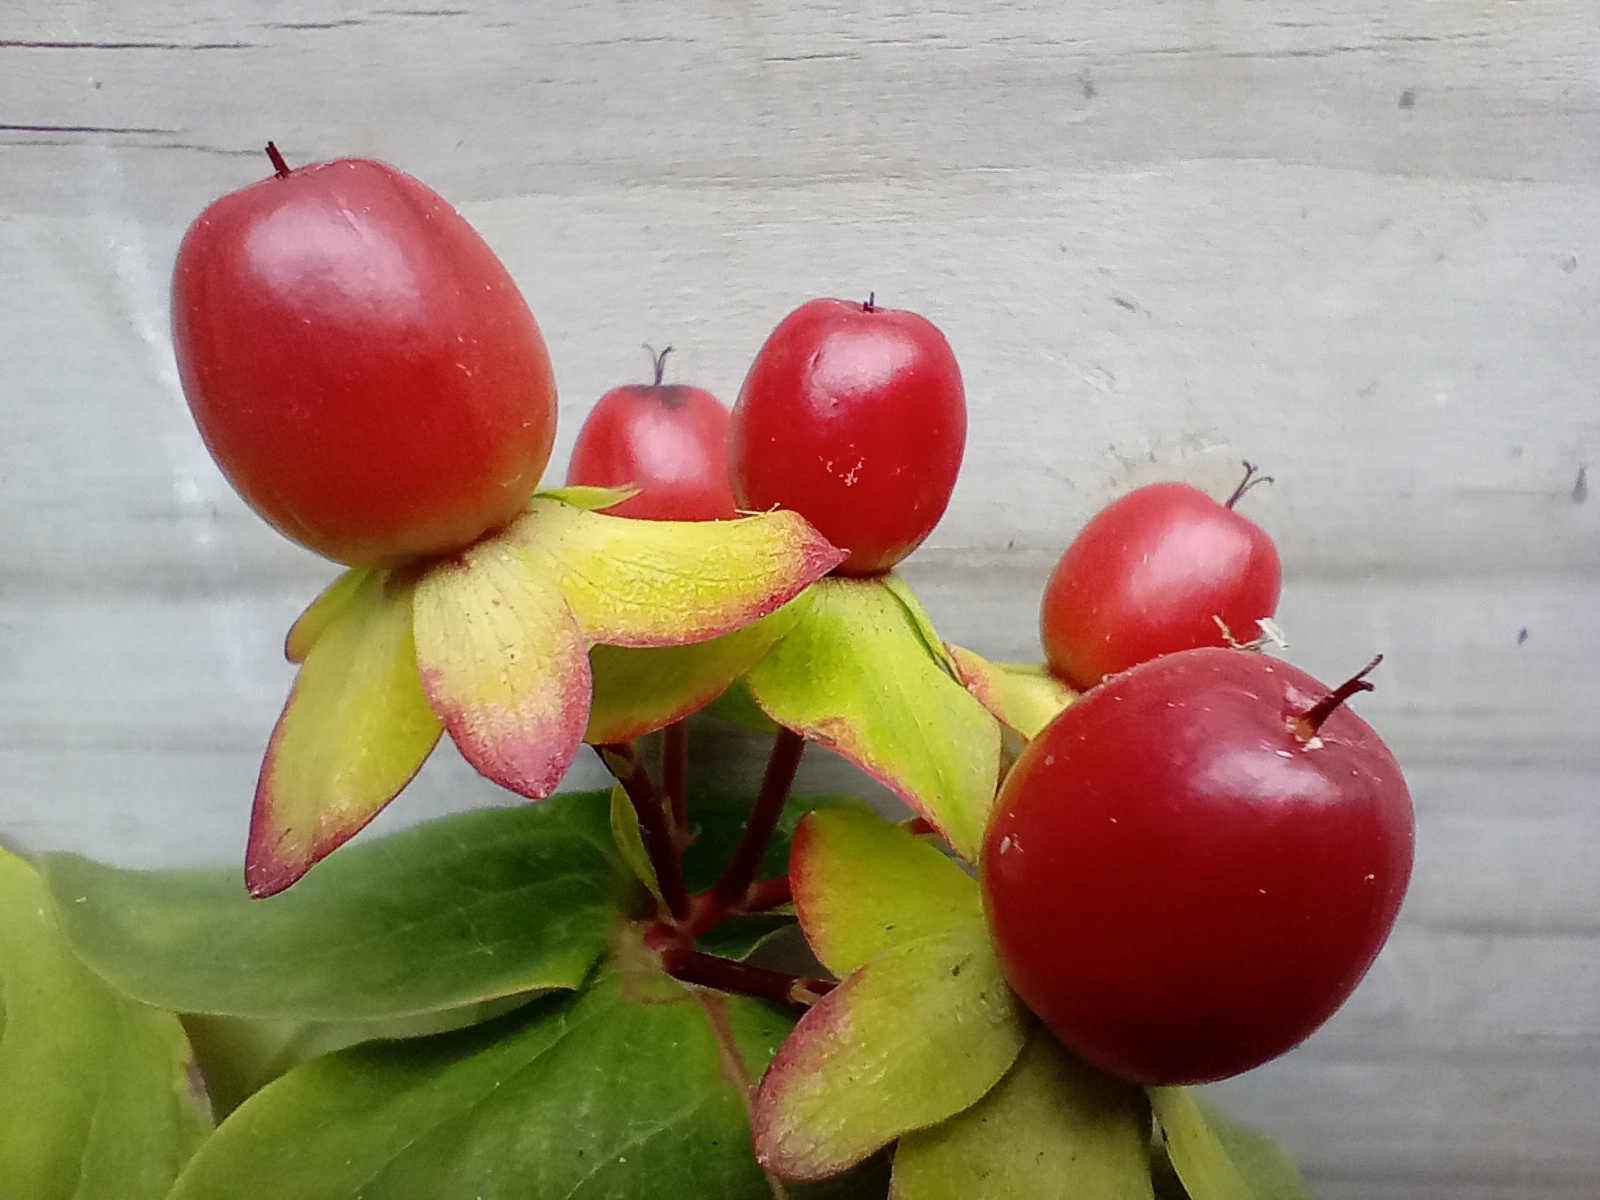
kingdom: Plantae
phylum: Tracheophyta
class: Magnoliopsida
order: Malpighiales
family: Hypericaceae
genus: Hypericum
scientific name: Hypericum androsaemum
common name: Sweet-amber
